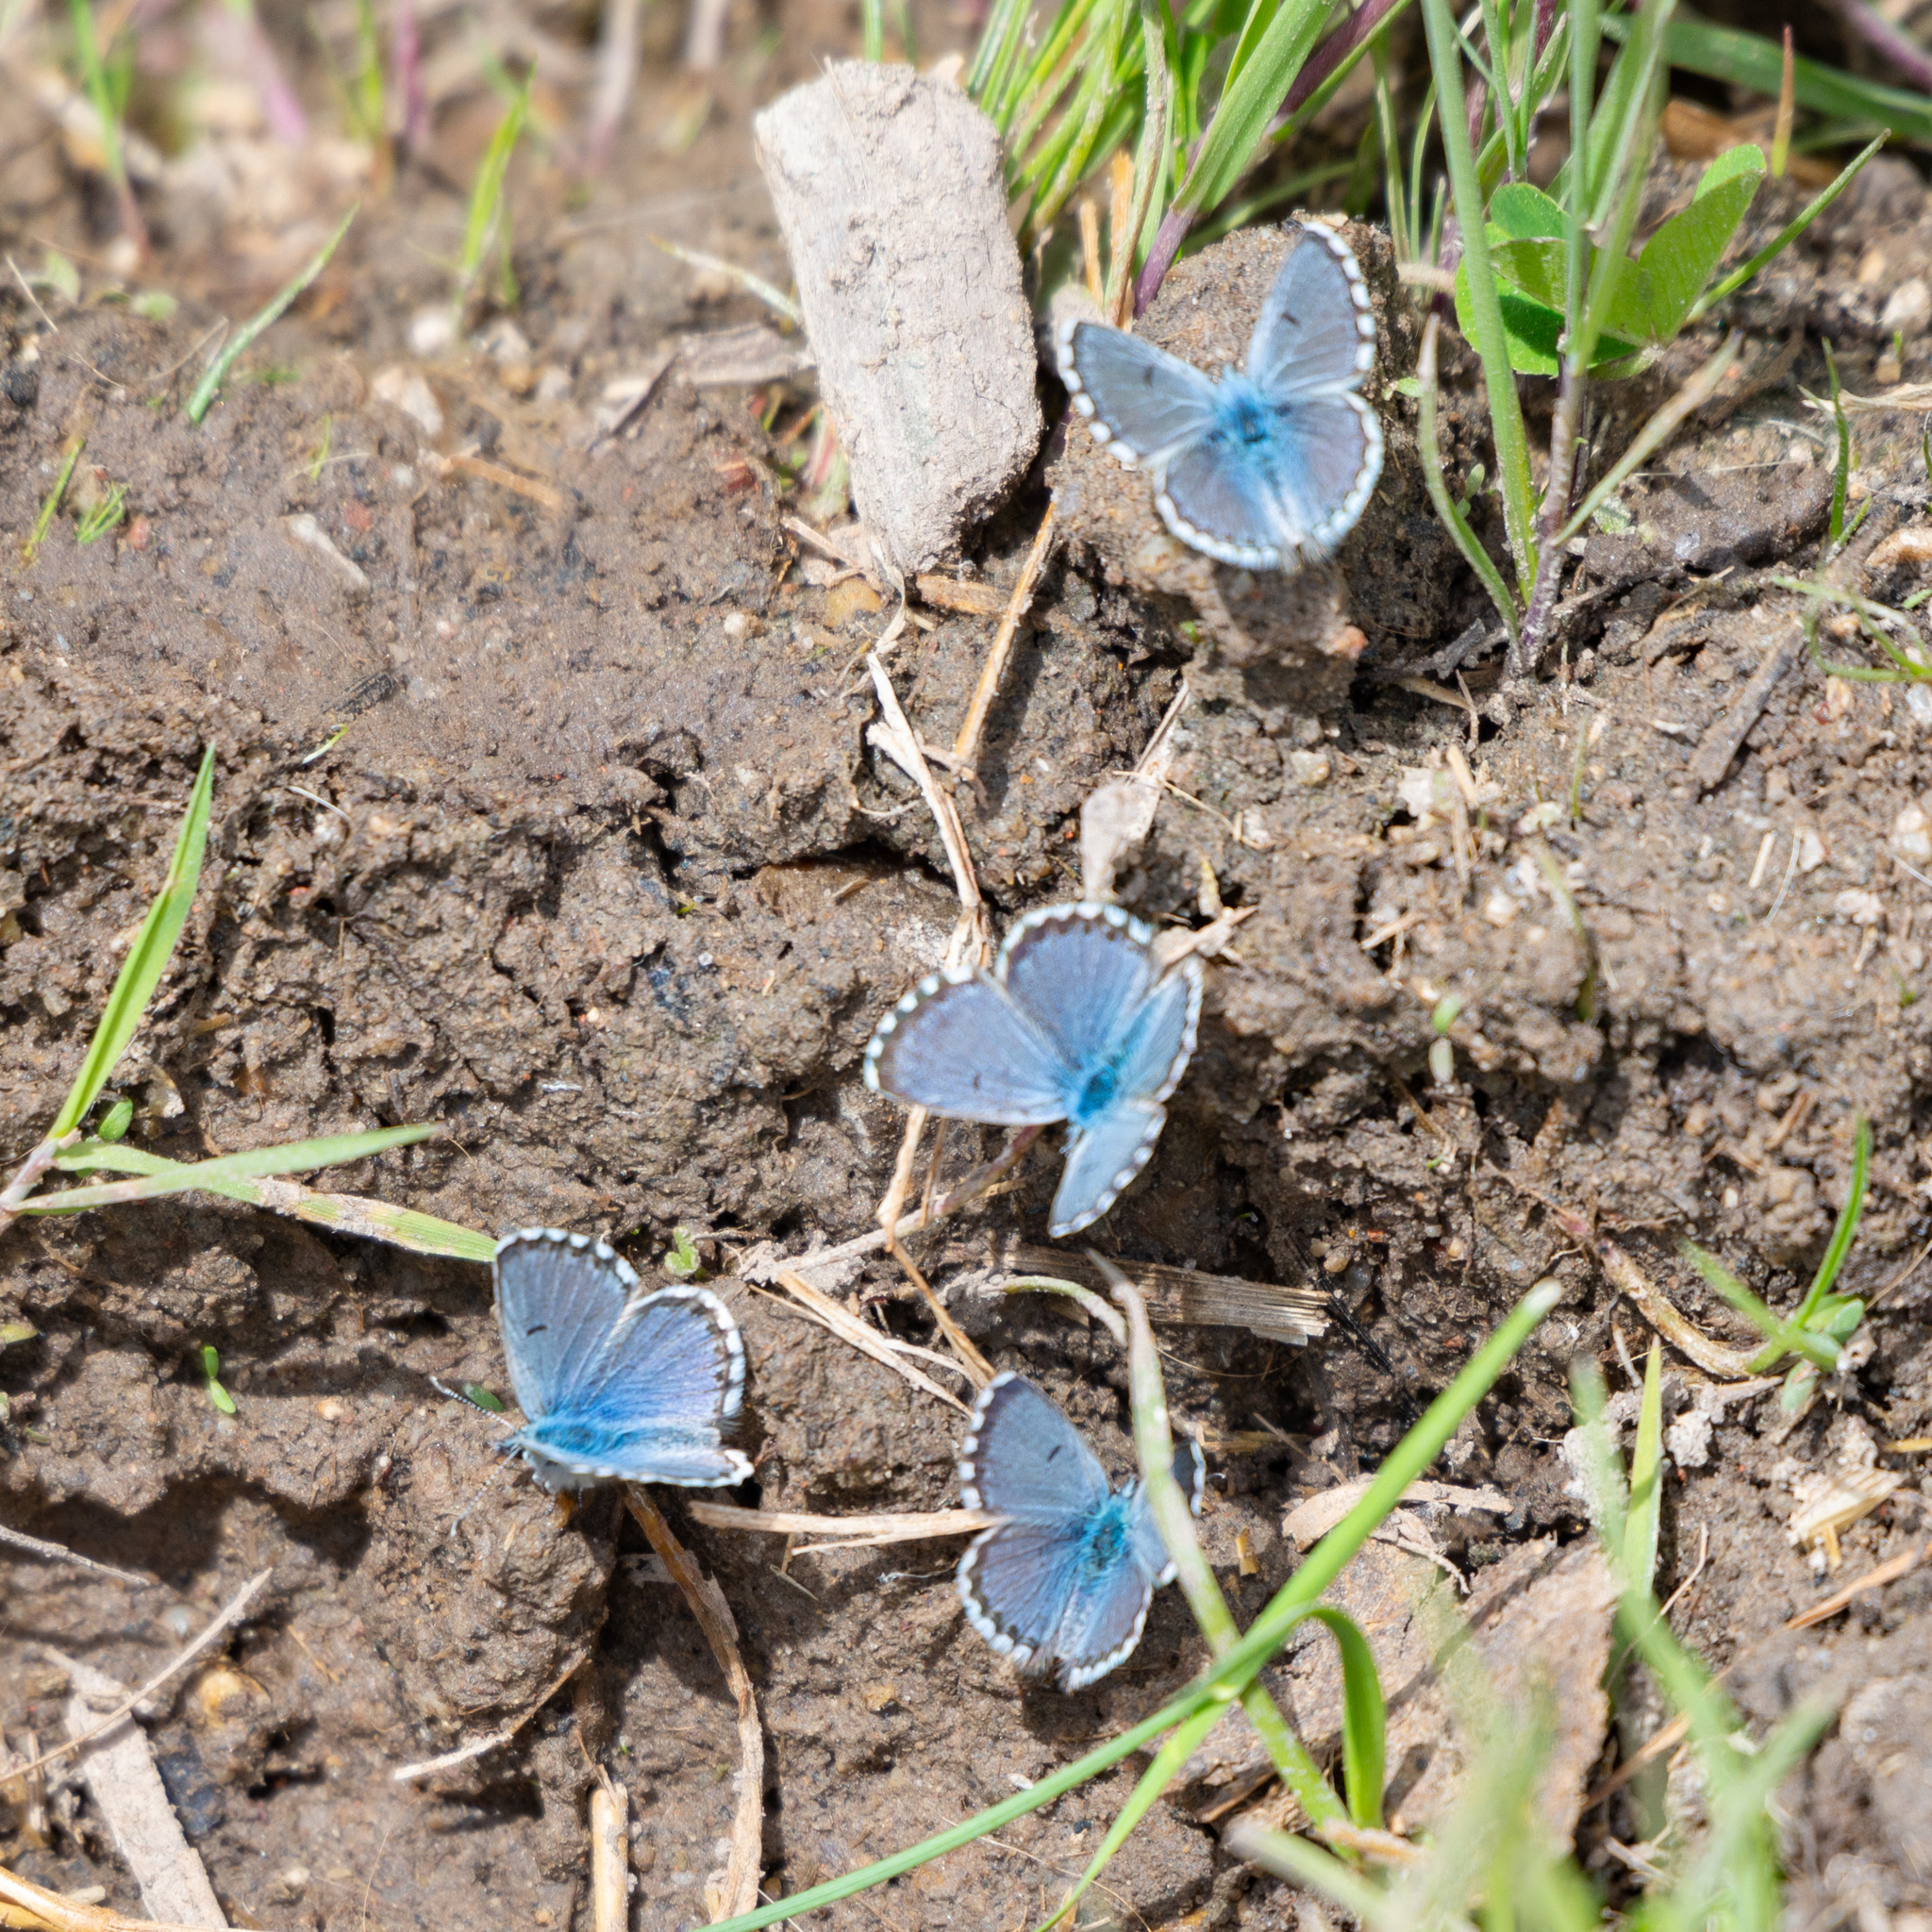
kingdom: Animalia
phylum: Arthropoda
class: Insecta
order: Lepidoptera
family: Lycaenidae
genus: Pseudophilotes
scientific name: Pseudophilotes baton
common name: Baton blue
